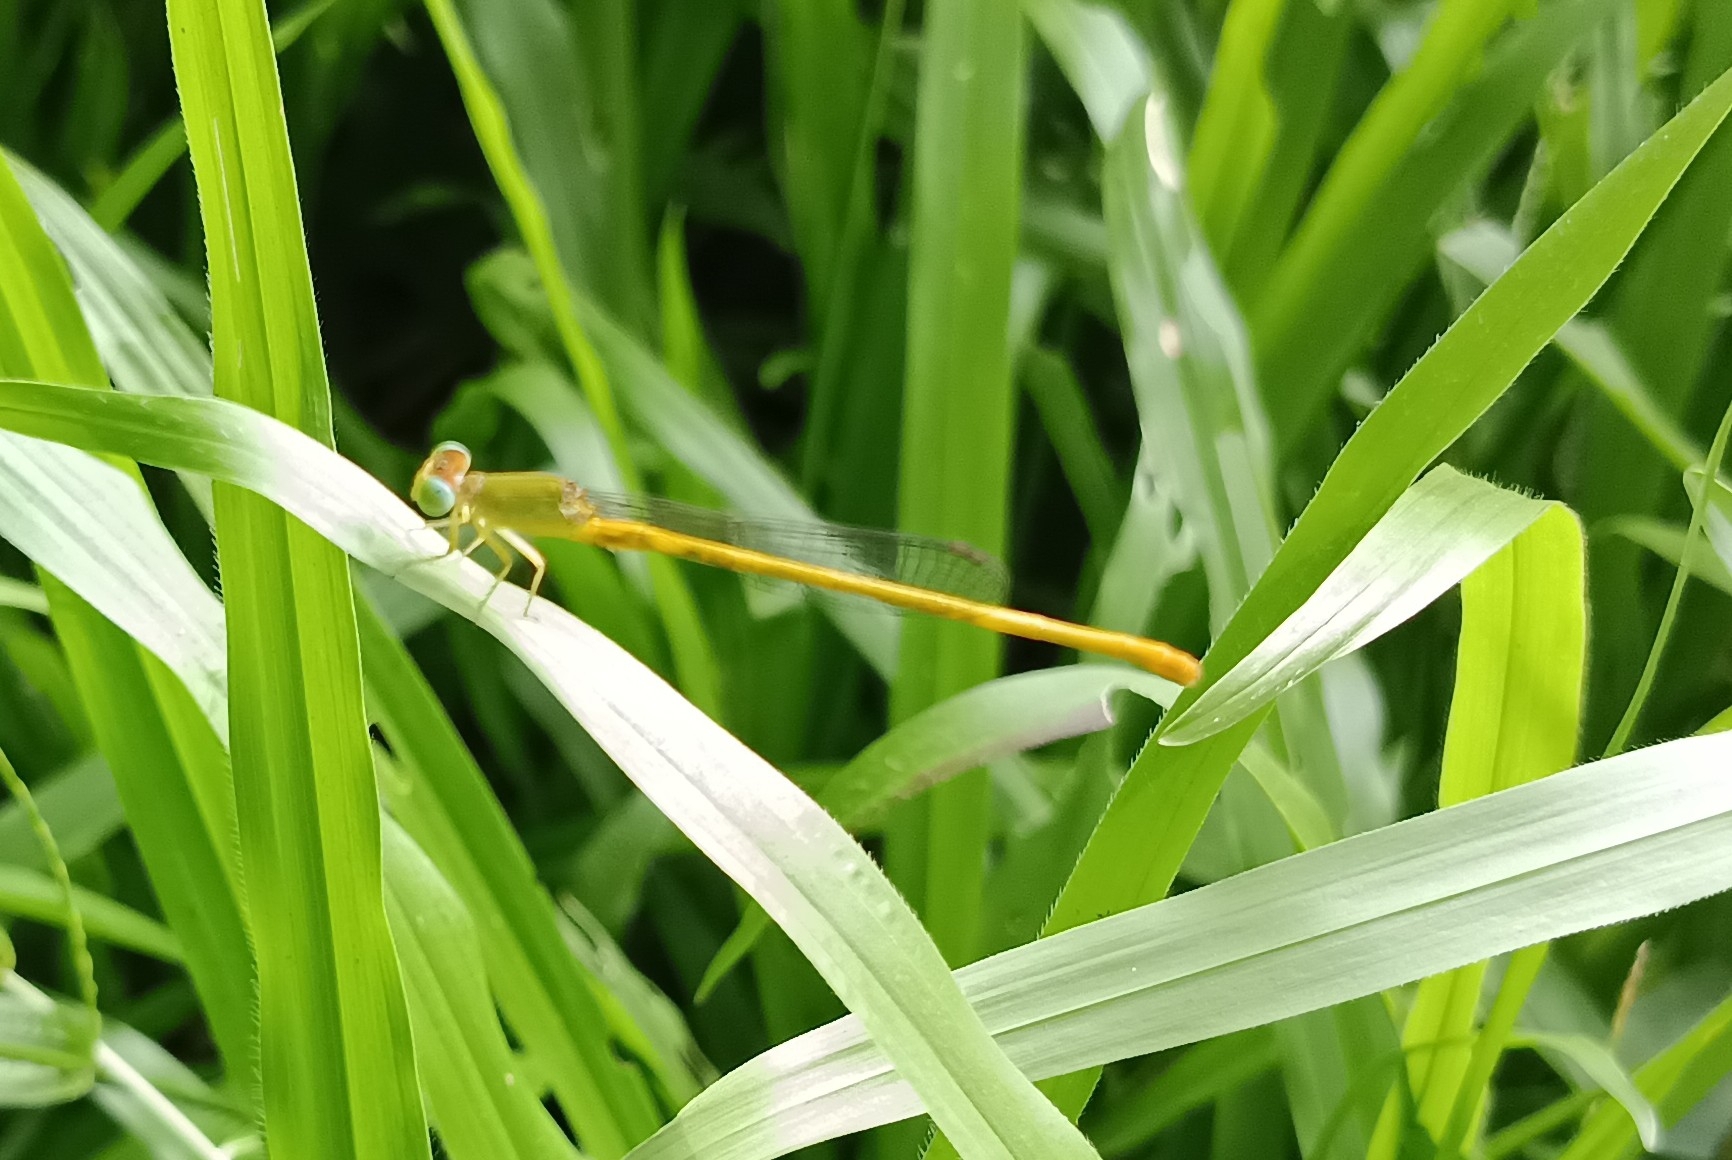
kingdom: Animalia
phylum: Arthropoda
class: Insecta
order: Odonata
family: Coenagrionidae
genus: Ceriagrion
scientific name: Ceriagrion coromandelianum
